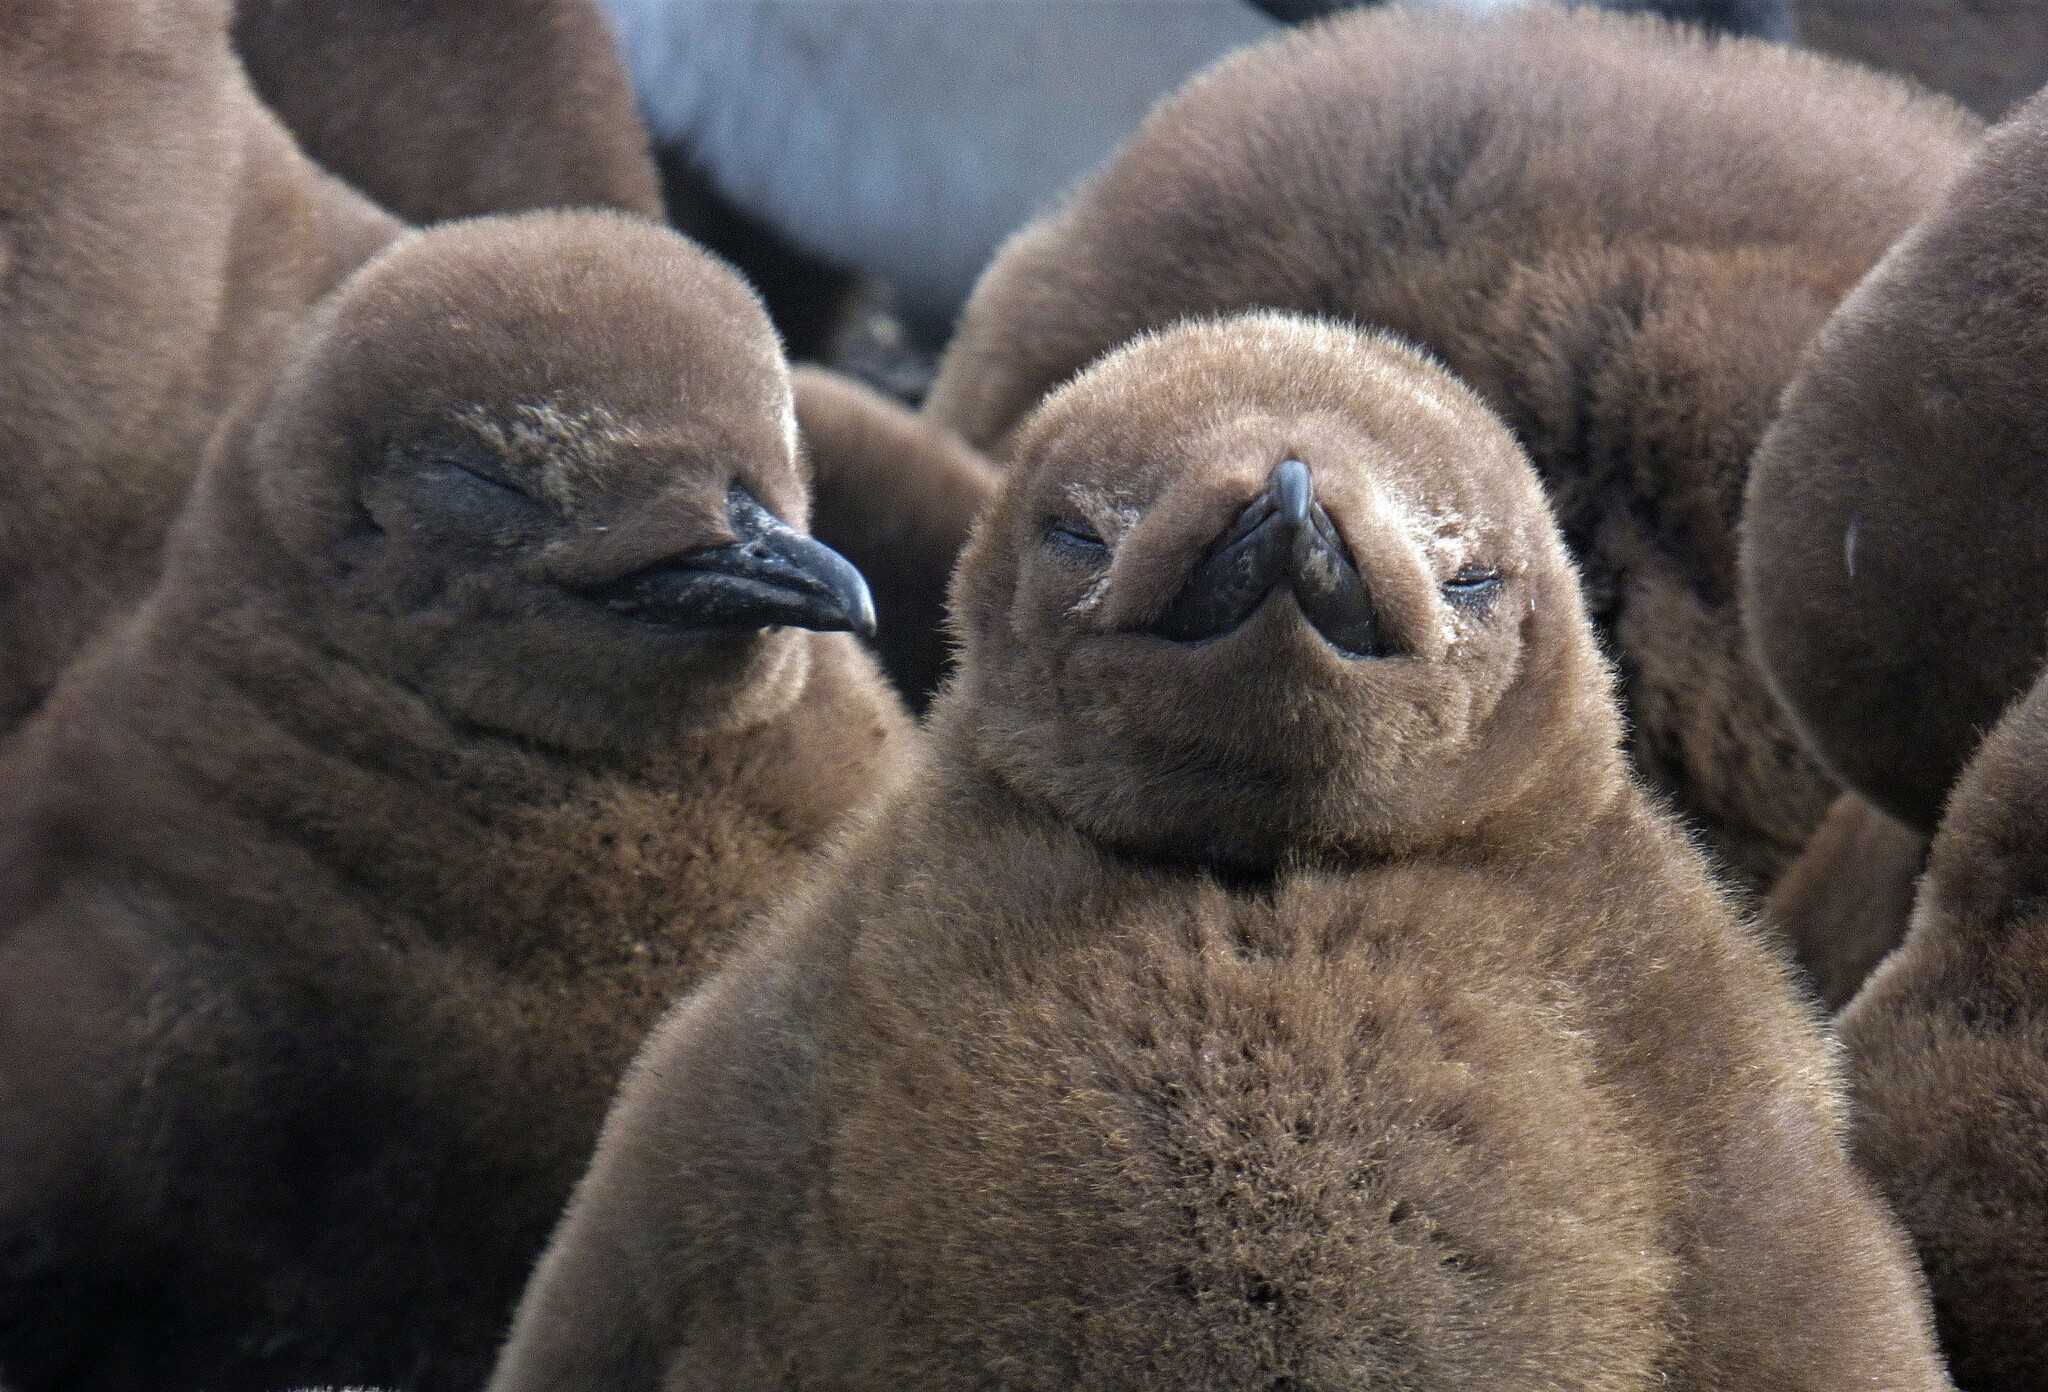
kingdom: Animalia
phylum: Chordata
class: Aves
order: Sphenisciformes
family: Spheniscidae
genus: Aptenodytes
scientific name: Aptenodytes patagonicus
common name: King penguin
